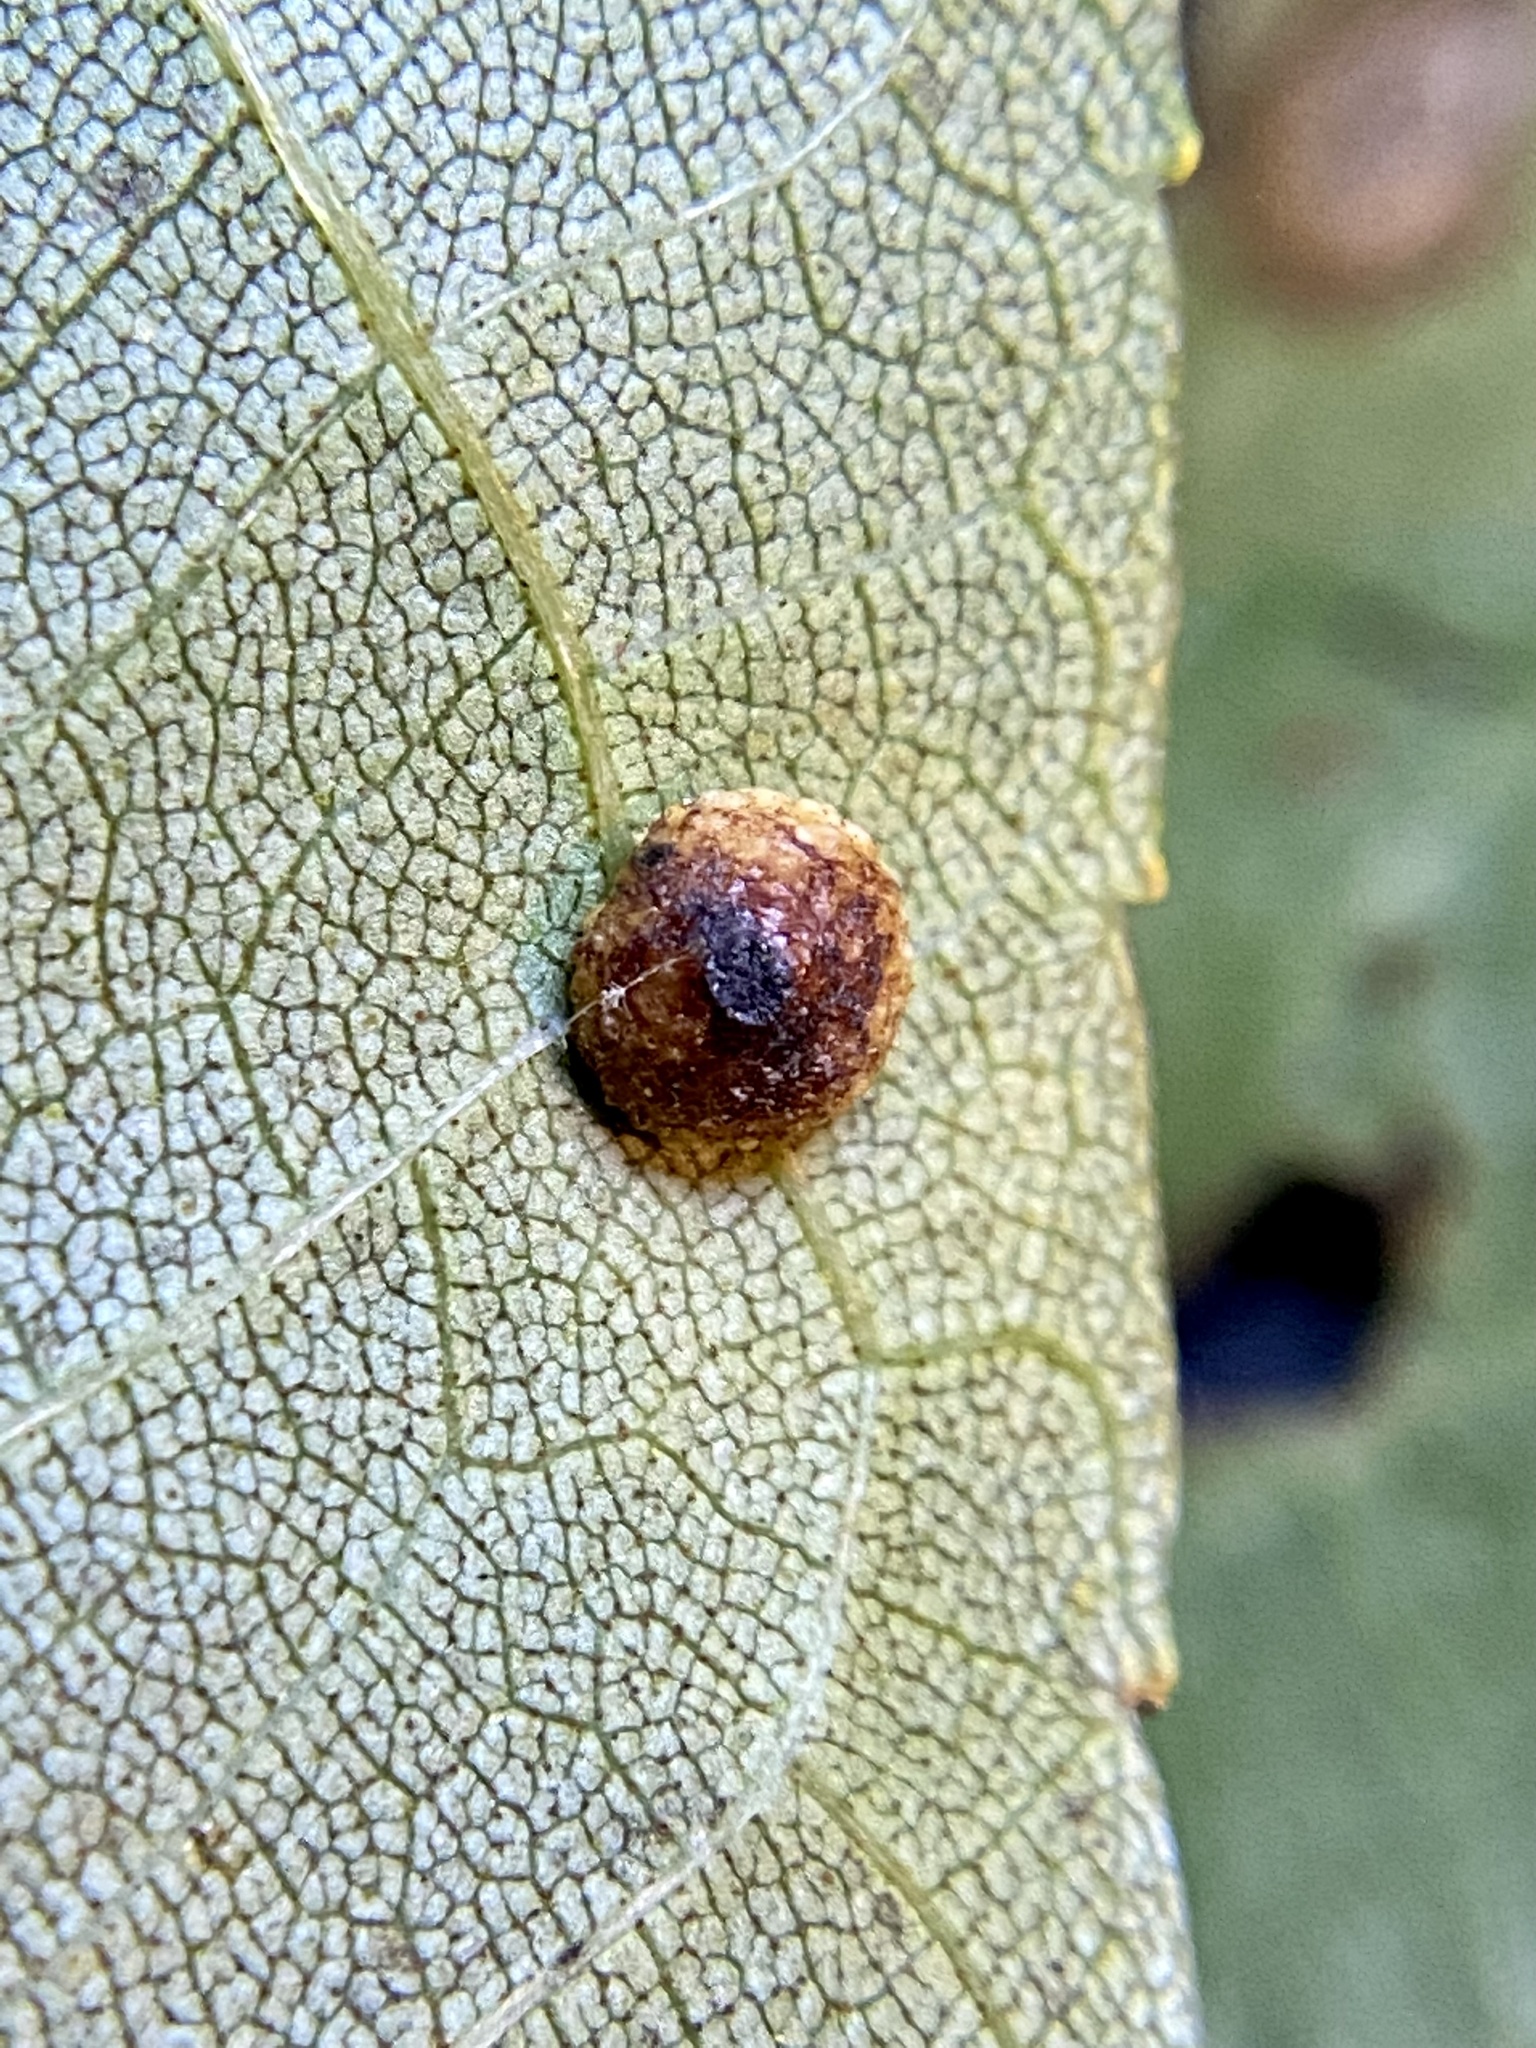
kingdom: Animalia
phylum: Arthropoda
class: Insecta
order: Diptera
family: Cecidomyiidae
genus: Caryomyia
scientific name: Caryomyia glebosa
